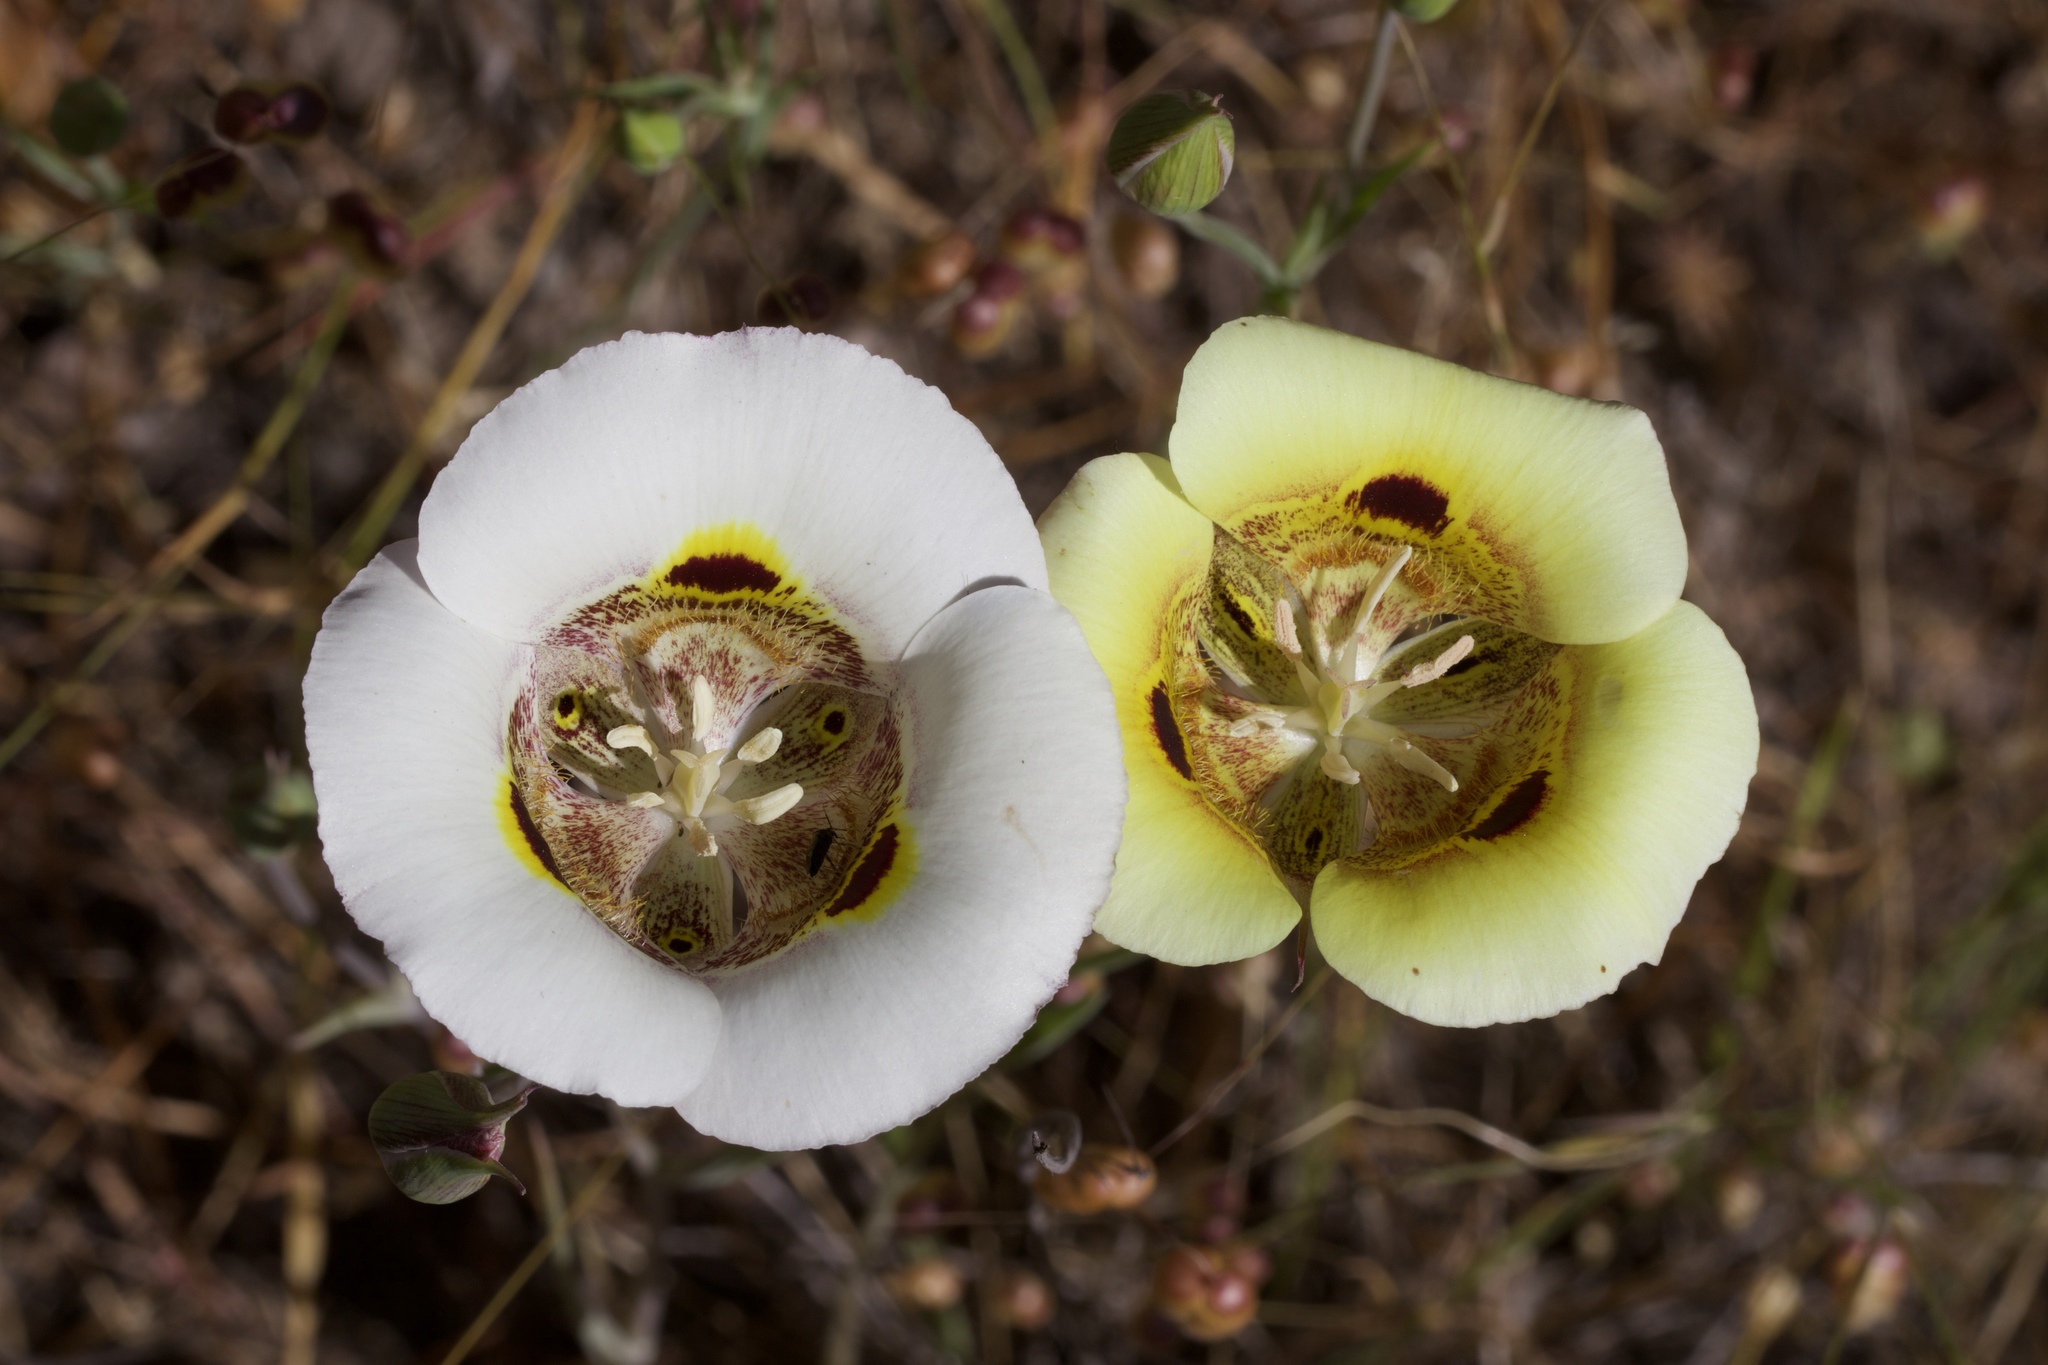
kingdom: Plantae
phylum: Tracheophyta
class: Liliopsida
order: Liliales
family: Liliaceae
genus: Calochortus
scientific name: Calochortus superbus
